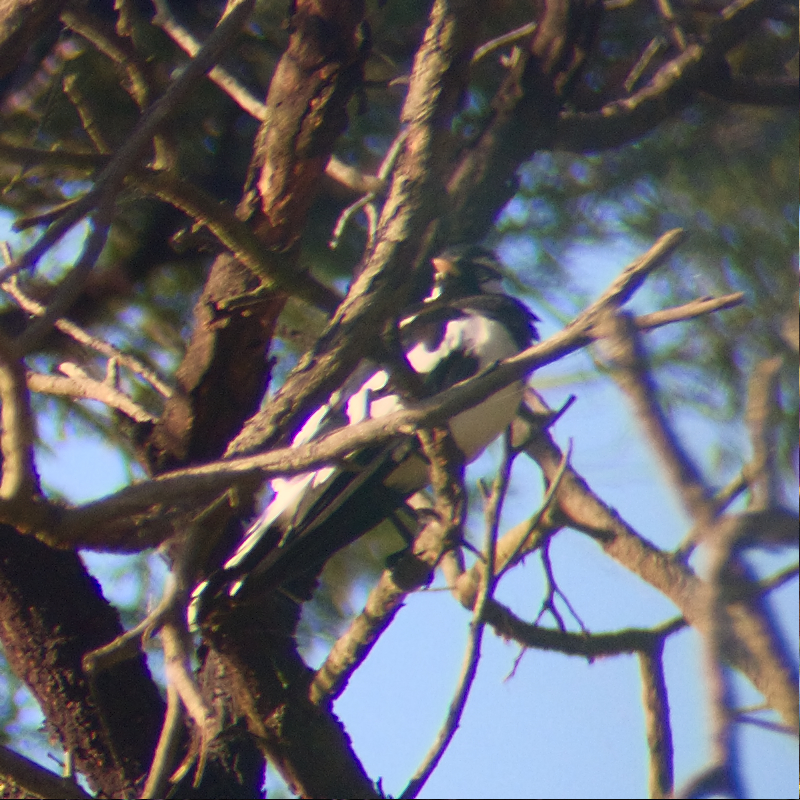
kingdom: Animalia
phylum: Chordata
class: Aves
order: Passeriformes
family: Monarchidae
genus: Grallina
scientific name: Grallina cyanoleuca
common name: Magpie-lark
